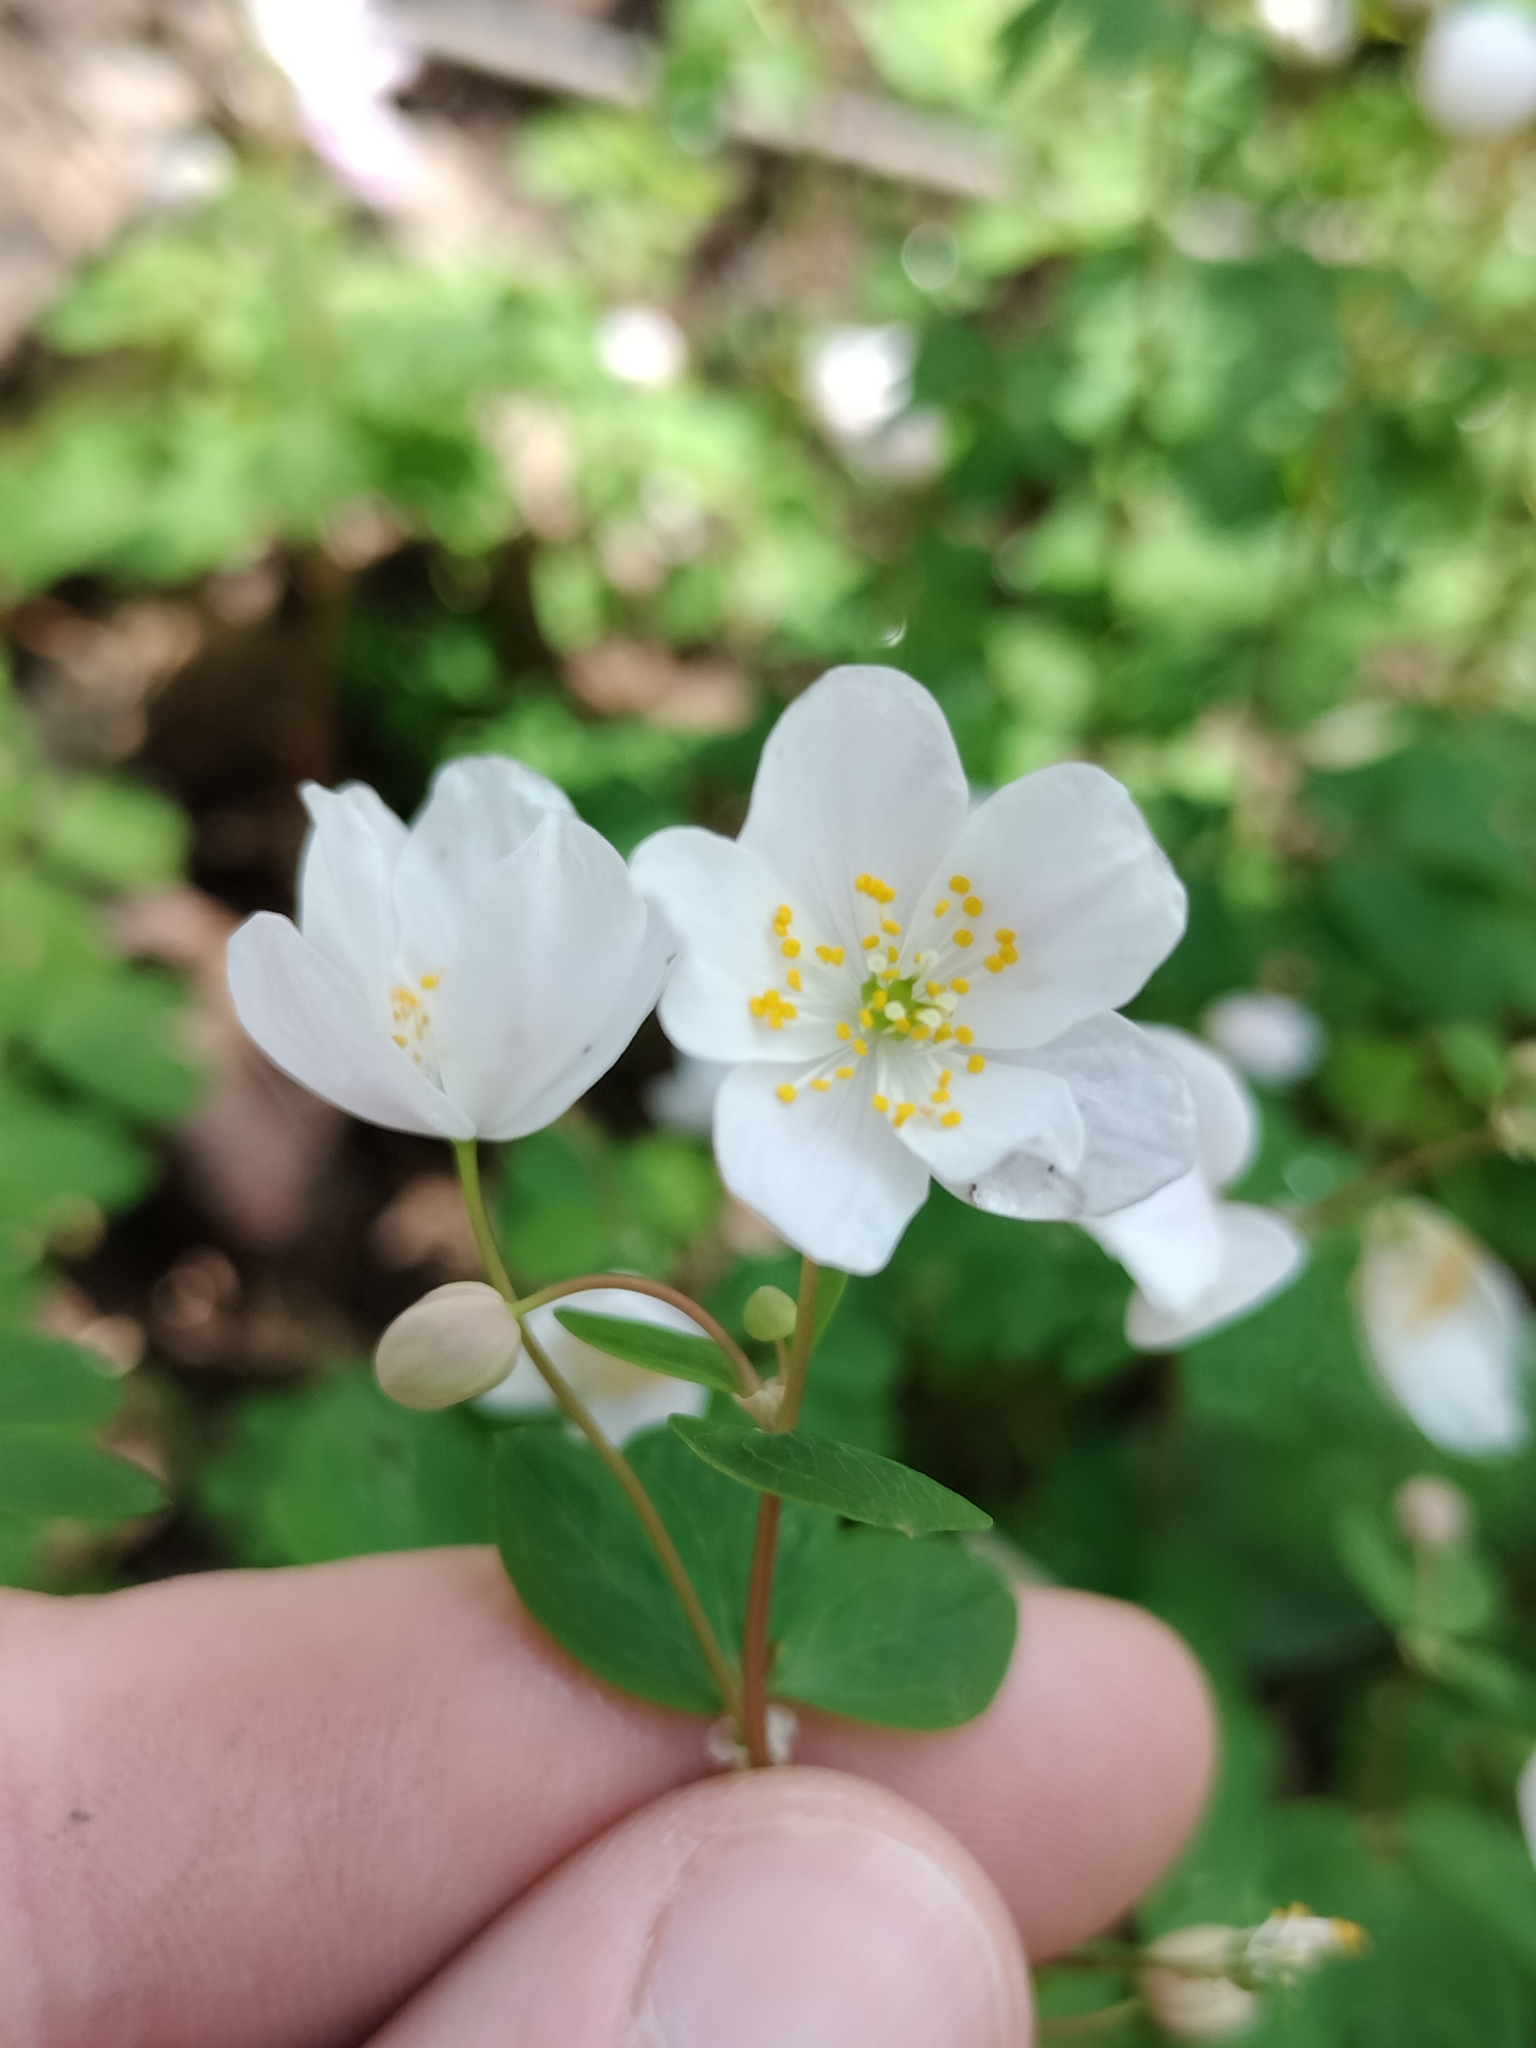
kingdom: Plantae
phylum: Tracheophyta
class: Magnoliopsida
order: Ranunculales
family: Ranunculaceae
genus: Enemion
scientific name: Enemion biternatum
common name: Eastern false rue-anemone
